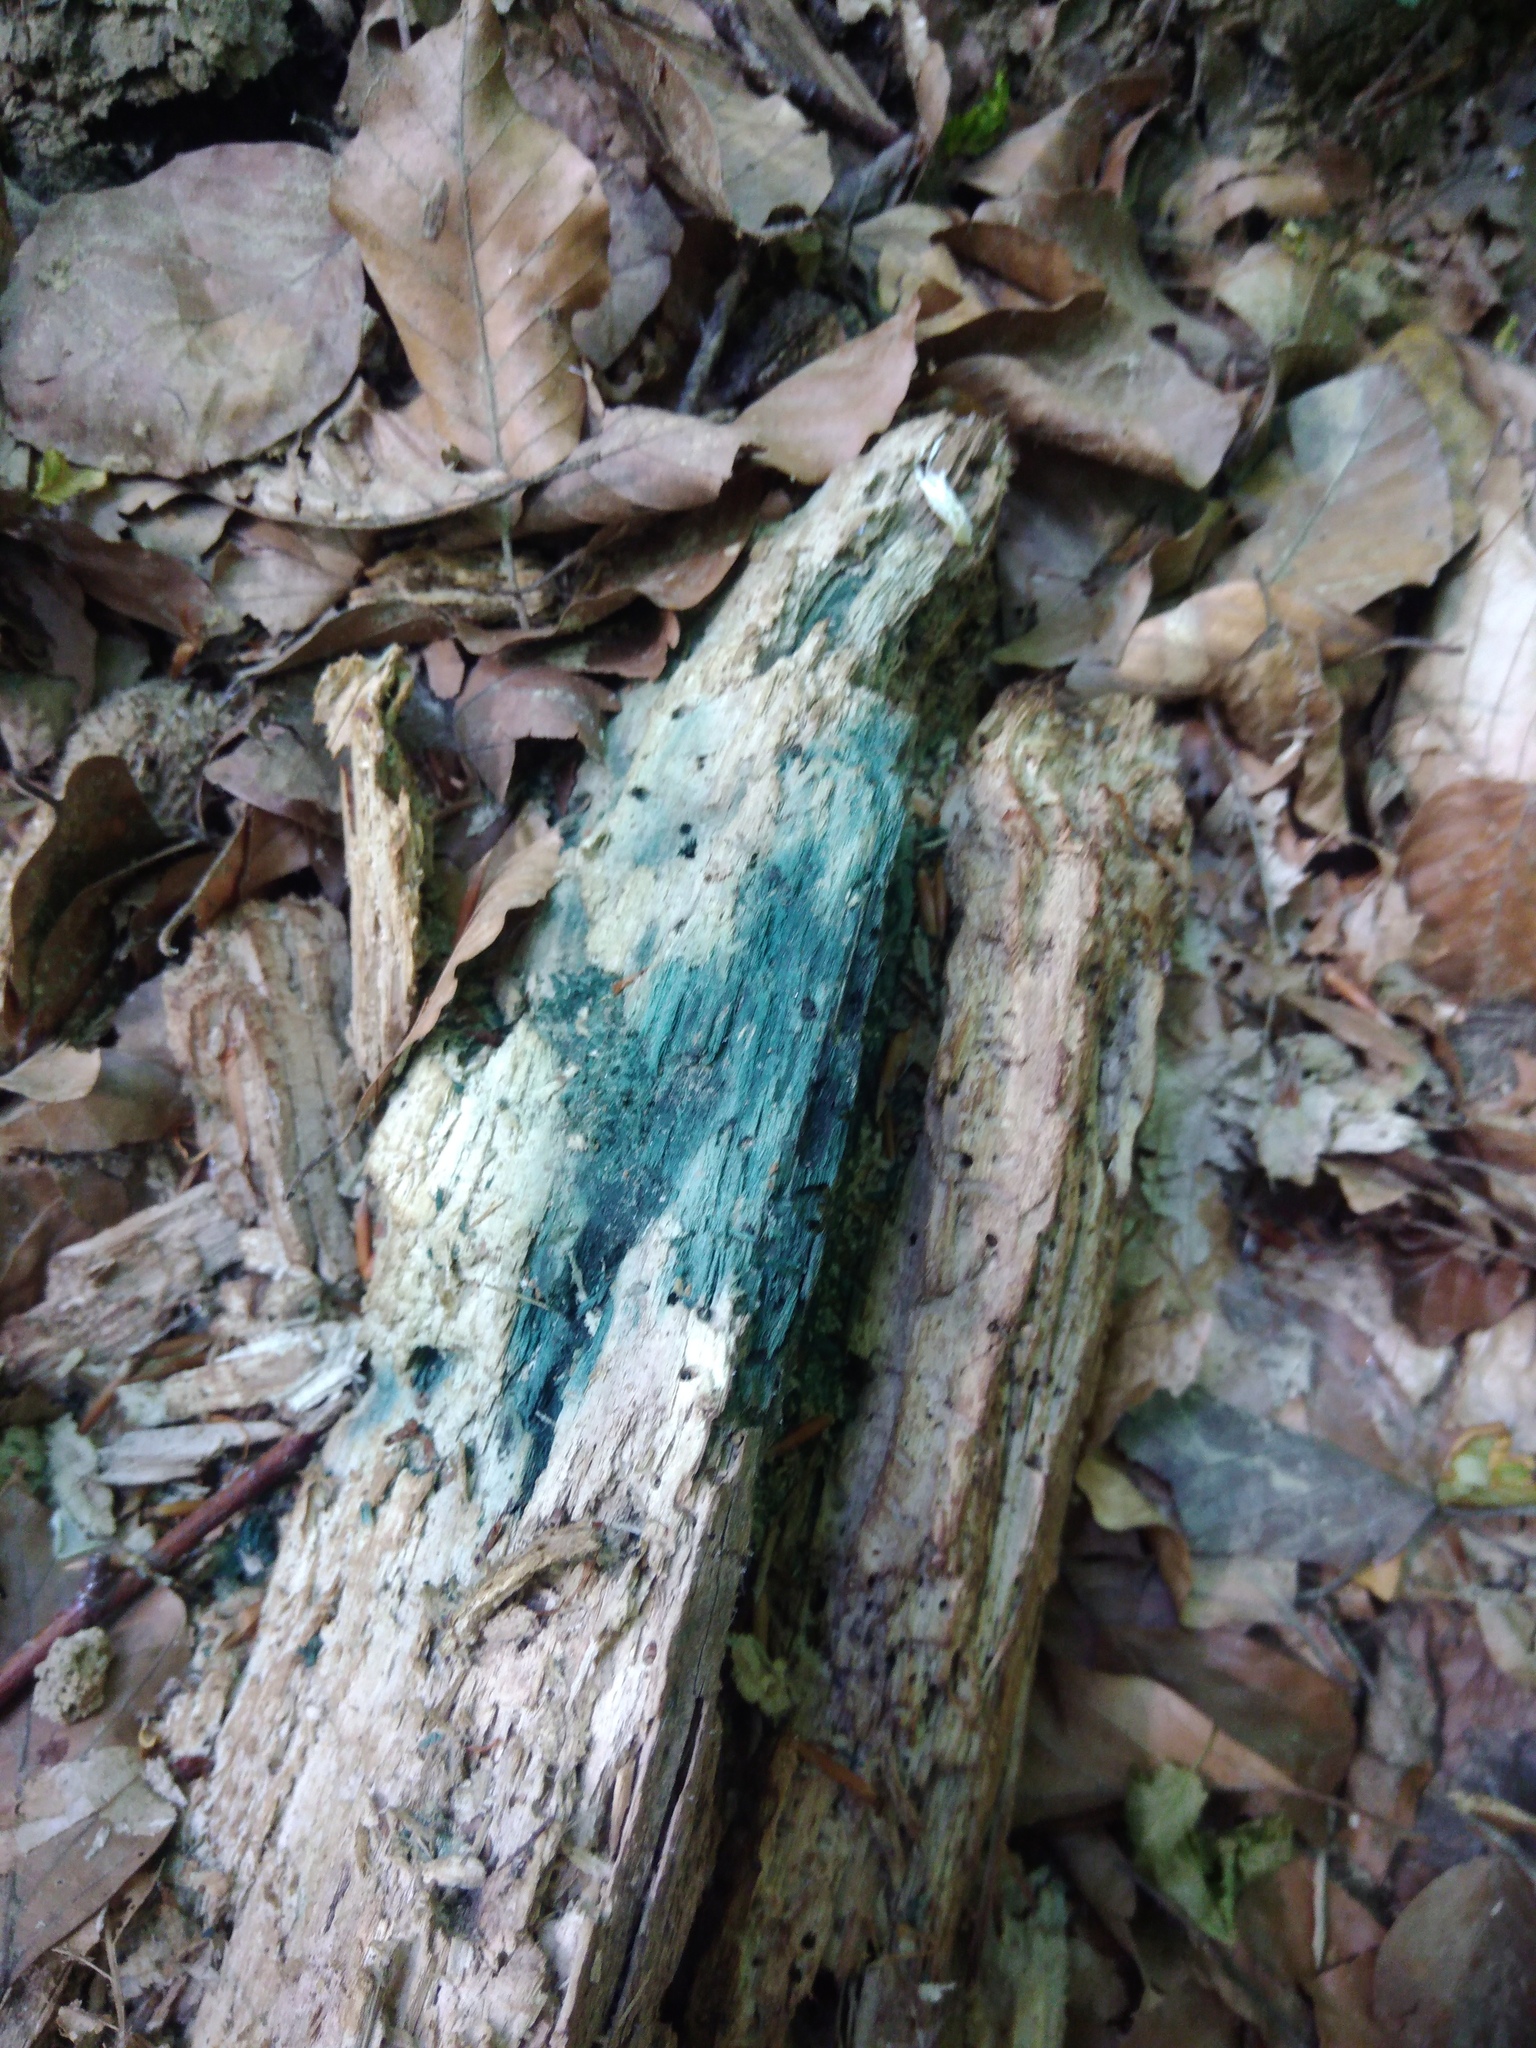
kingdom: Fungi
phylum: Ascomycota
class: Leotiomycetes
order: Helotiales
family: Chlorociboriaceae
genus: Chlorociboria
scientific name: Chlorociboria
